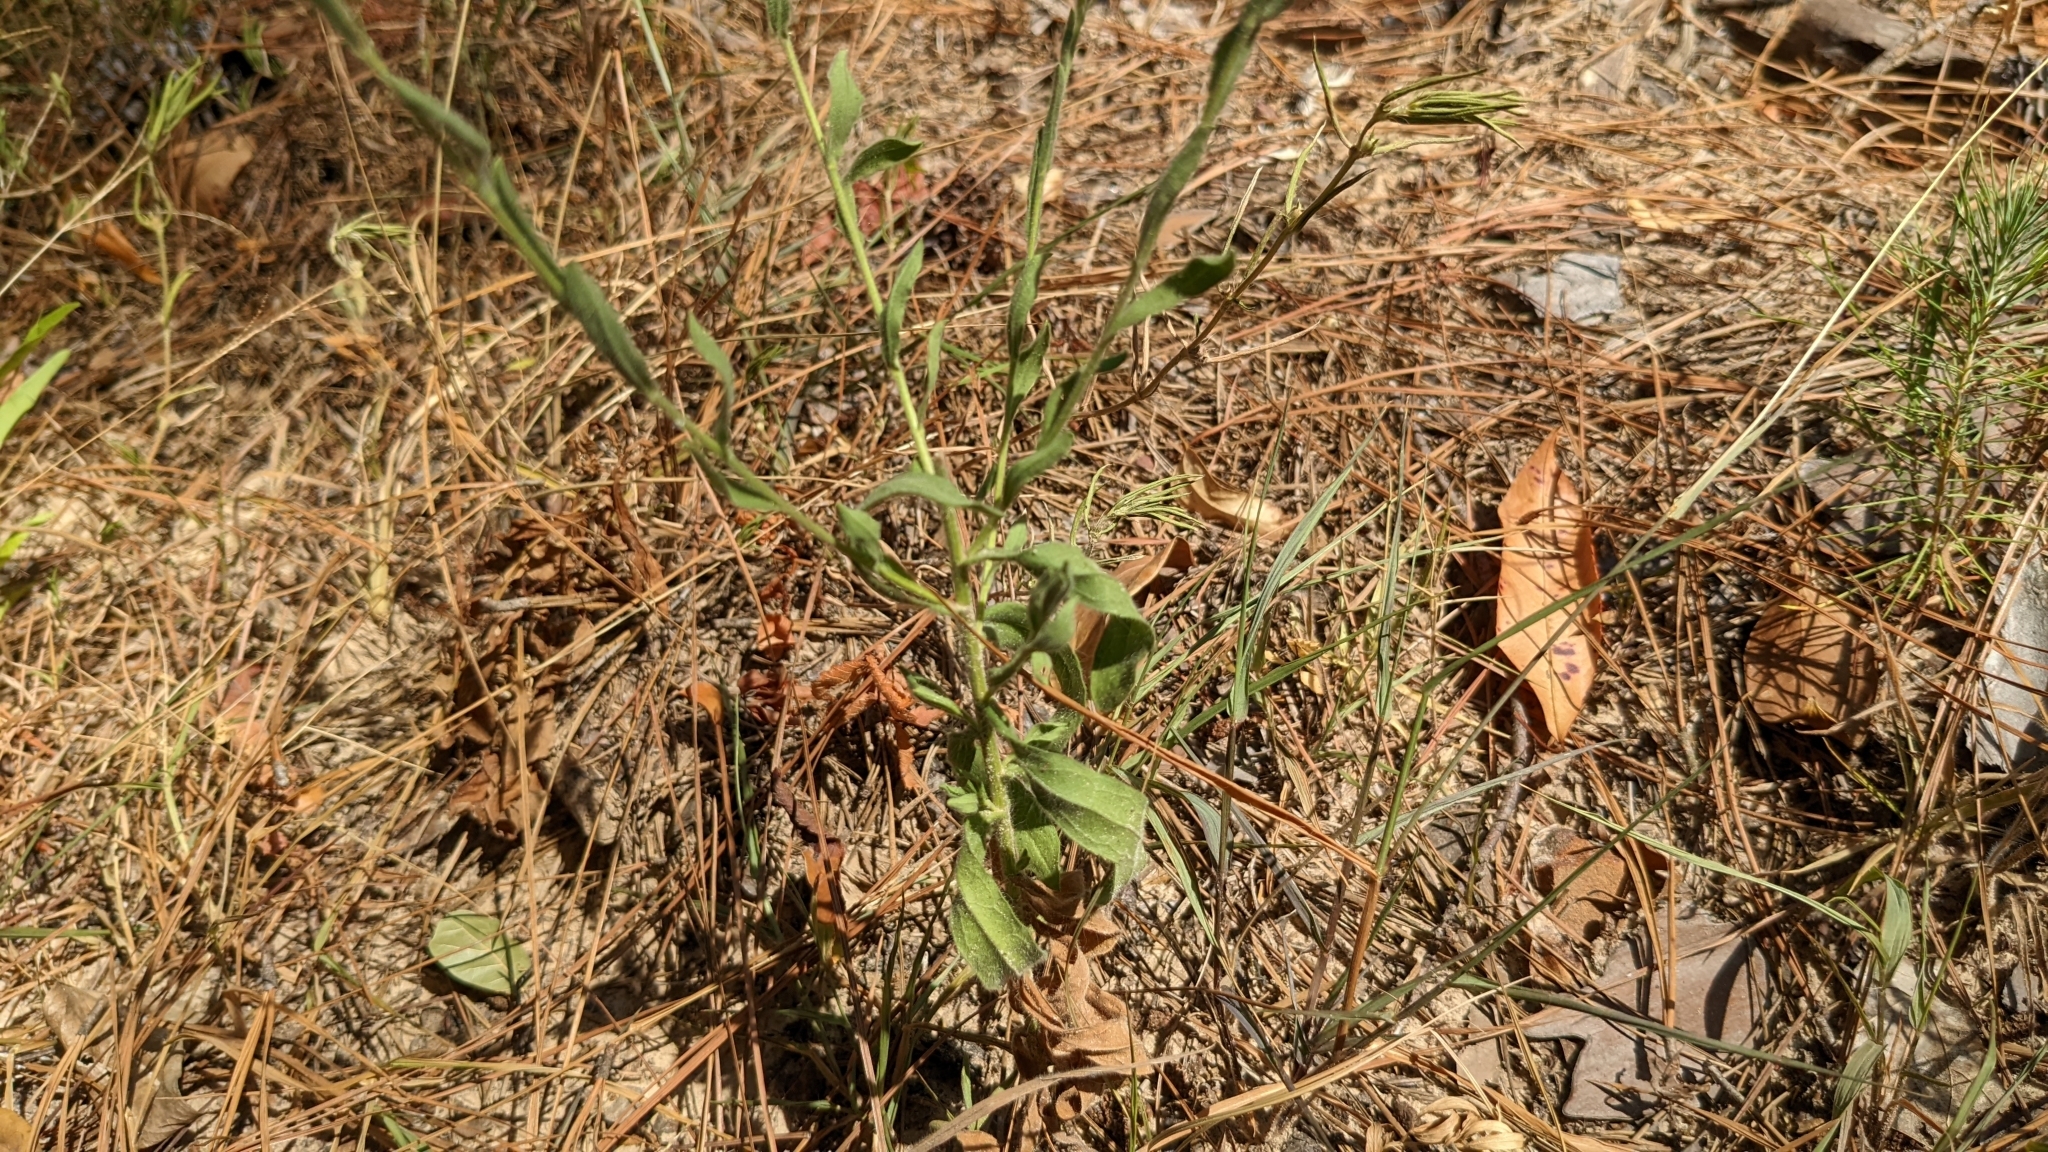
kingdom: Plantae
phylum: Tracheophyta
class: Magnoliopsida
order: Asterales
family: Asteraceae
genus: Bradburia
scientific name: Bradburia pilosa
